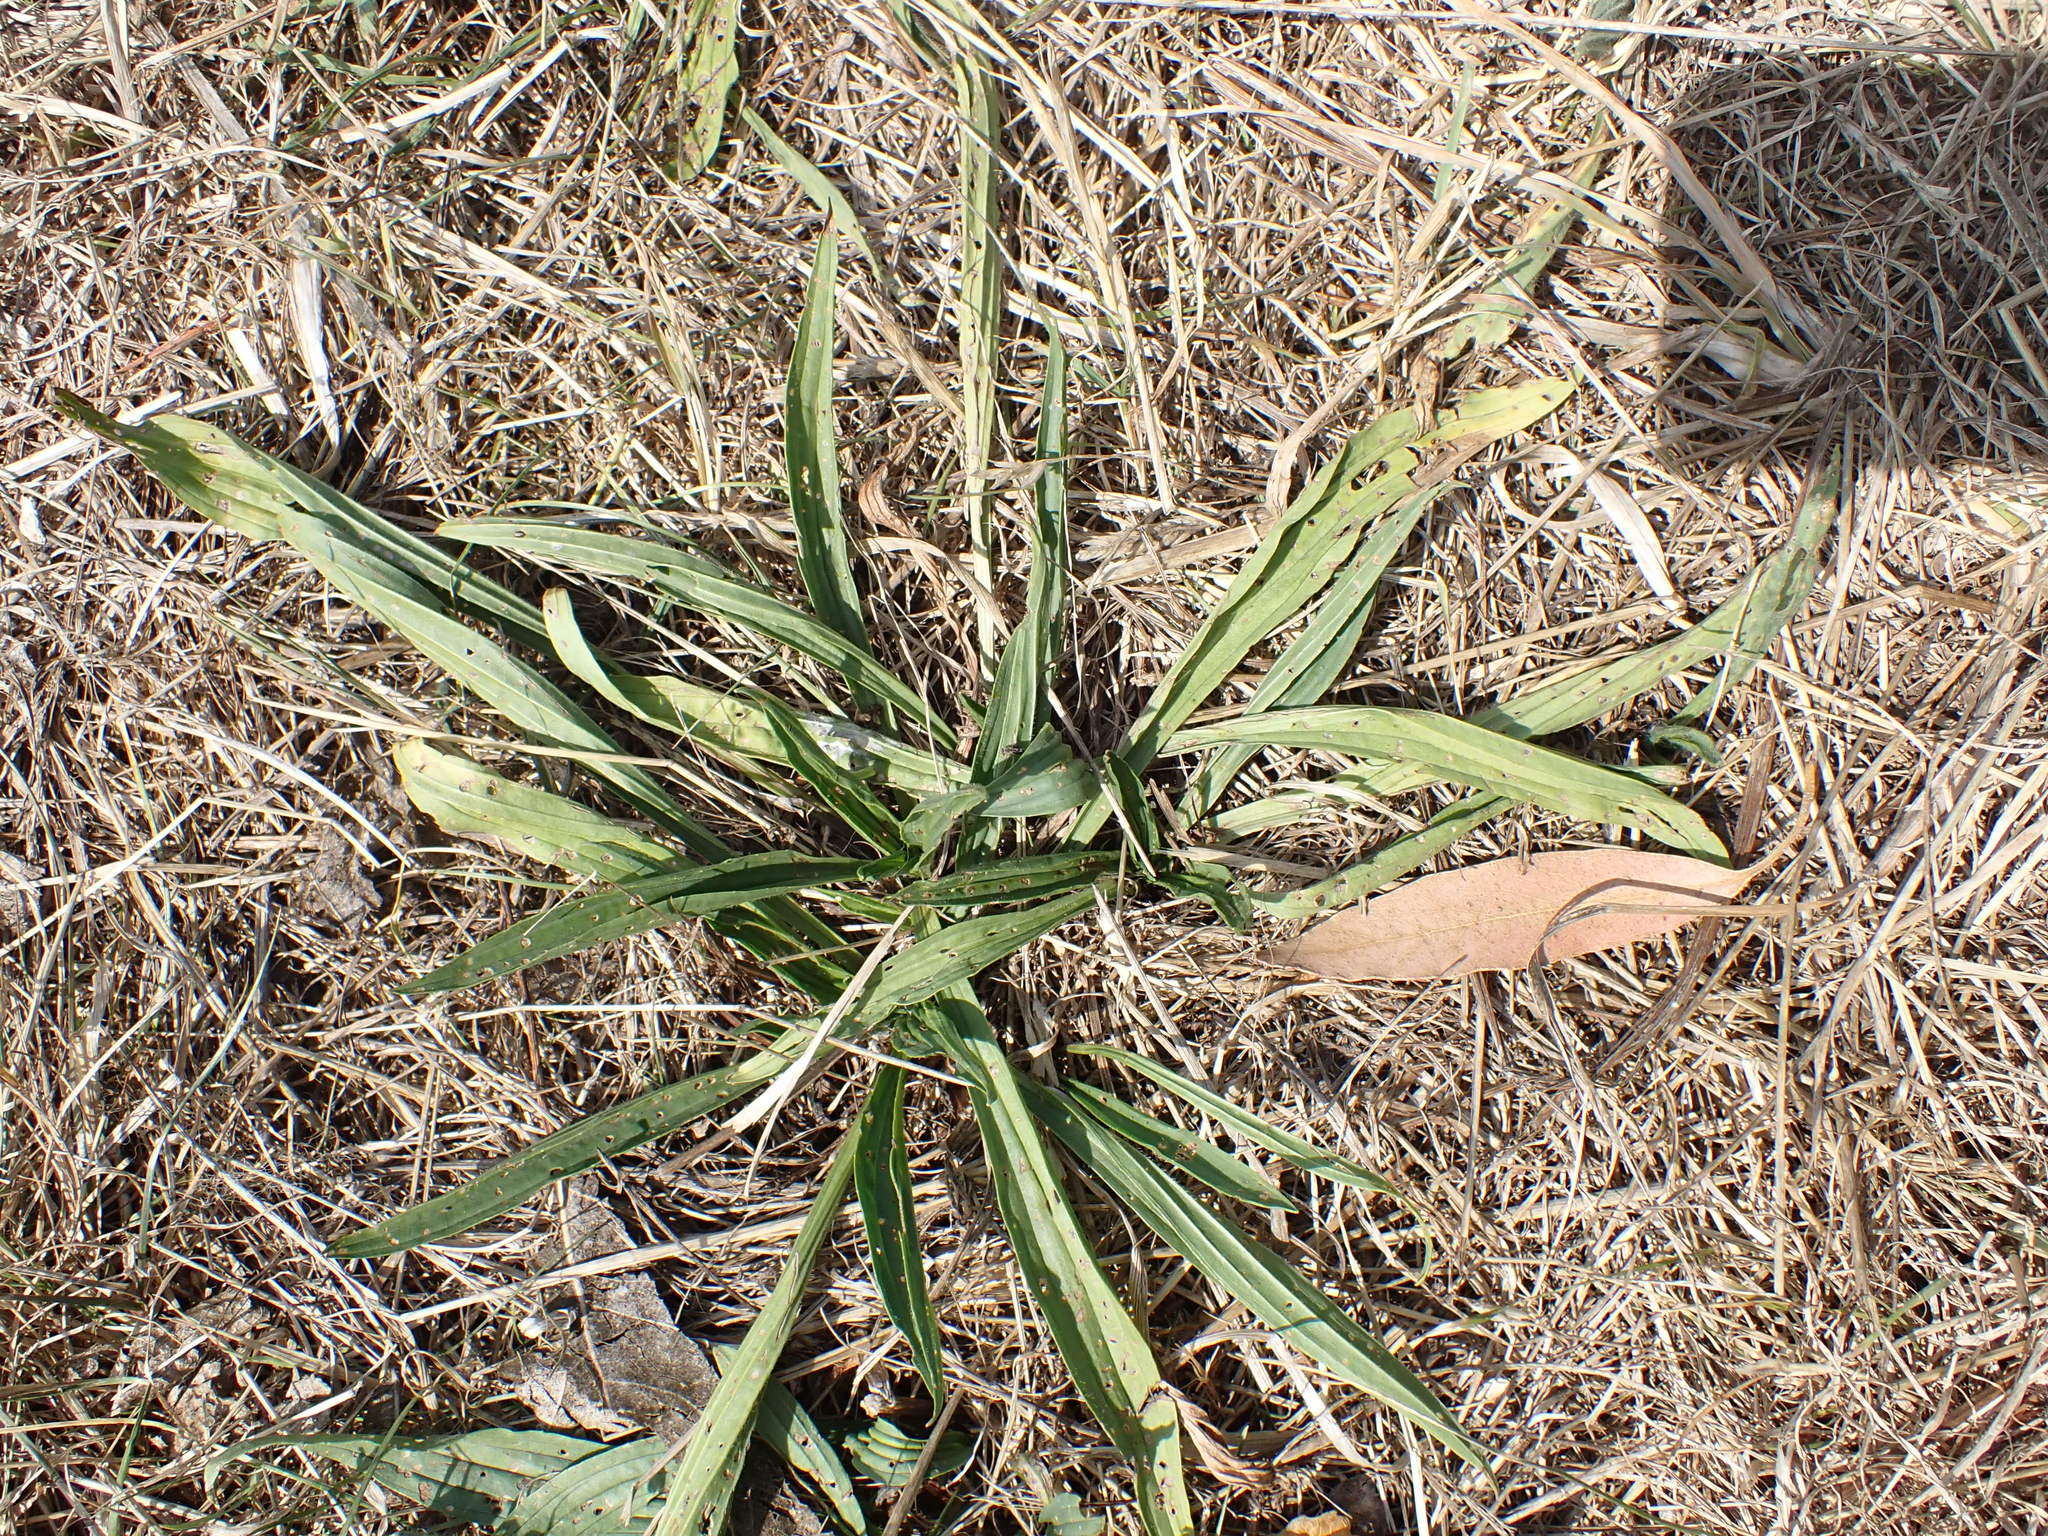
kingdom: Plantae
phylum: Tracheophyta
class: Magnoliopsida
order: Lamiales
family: Plantaginaceae
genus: Plantago
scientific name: Plantago lanceolata
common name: Ribwort plantain
